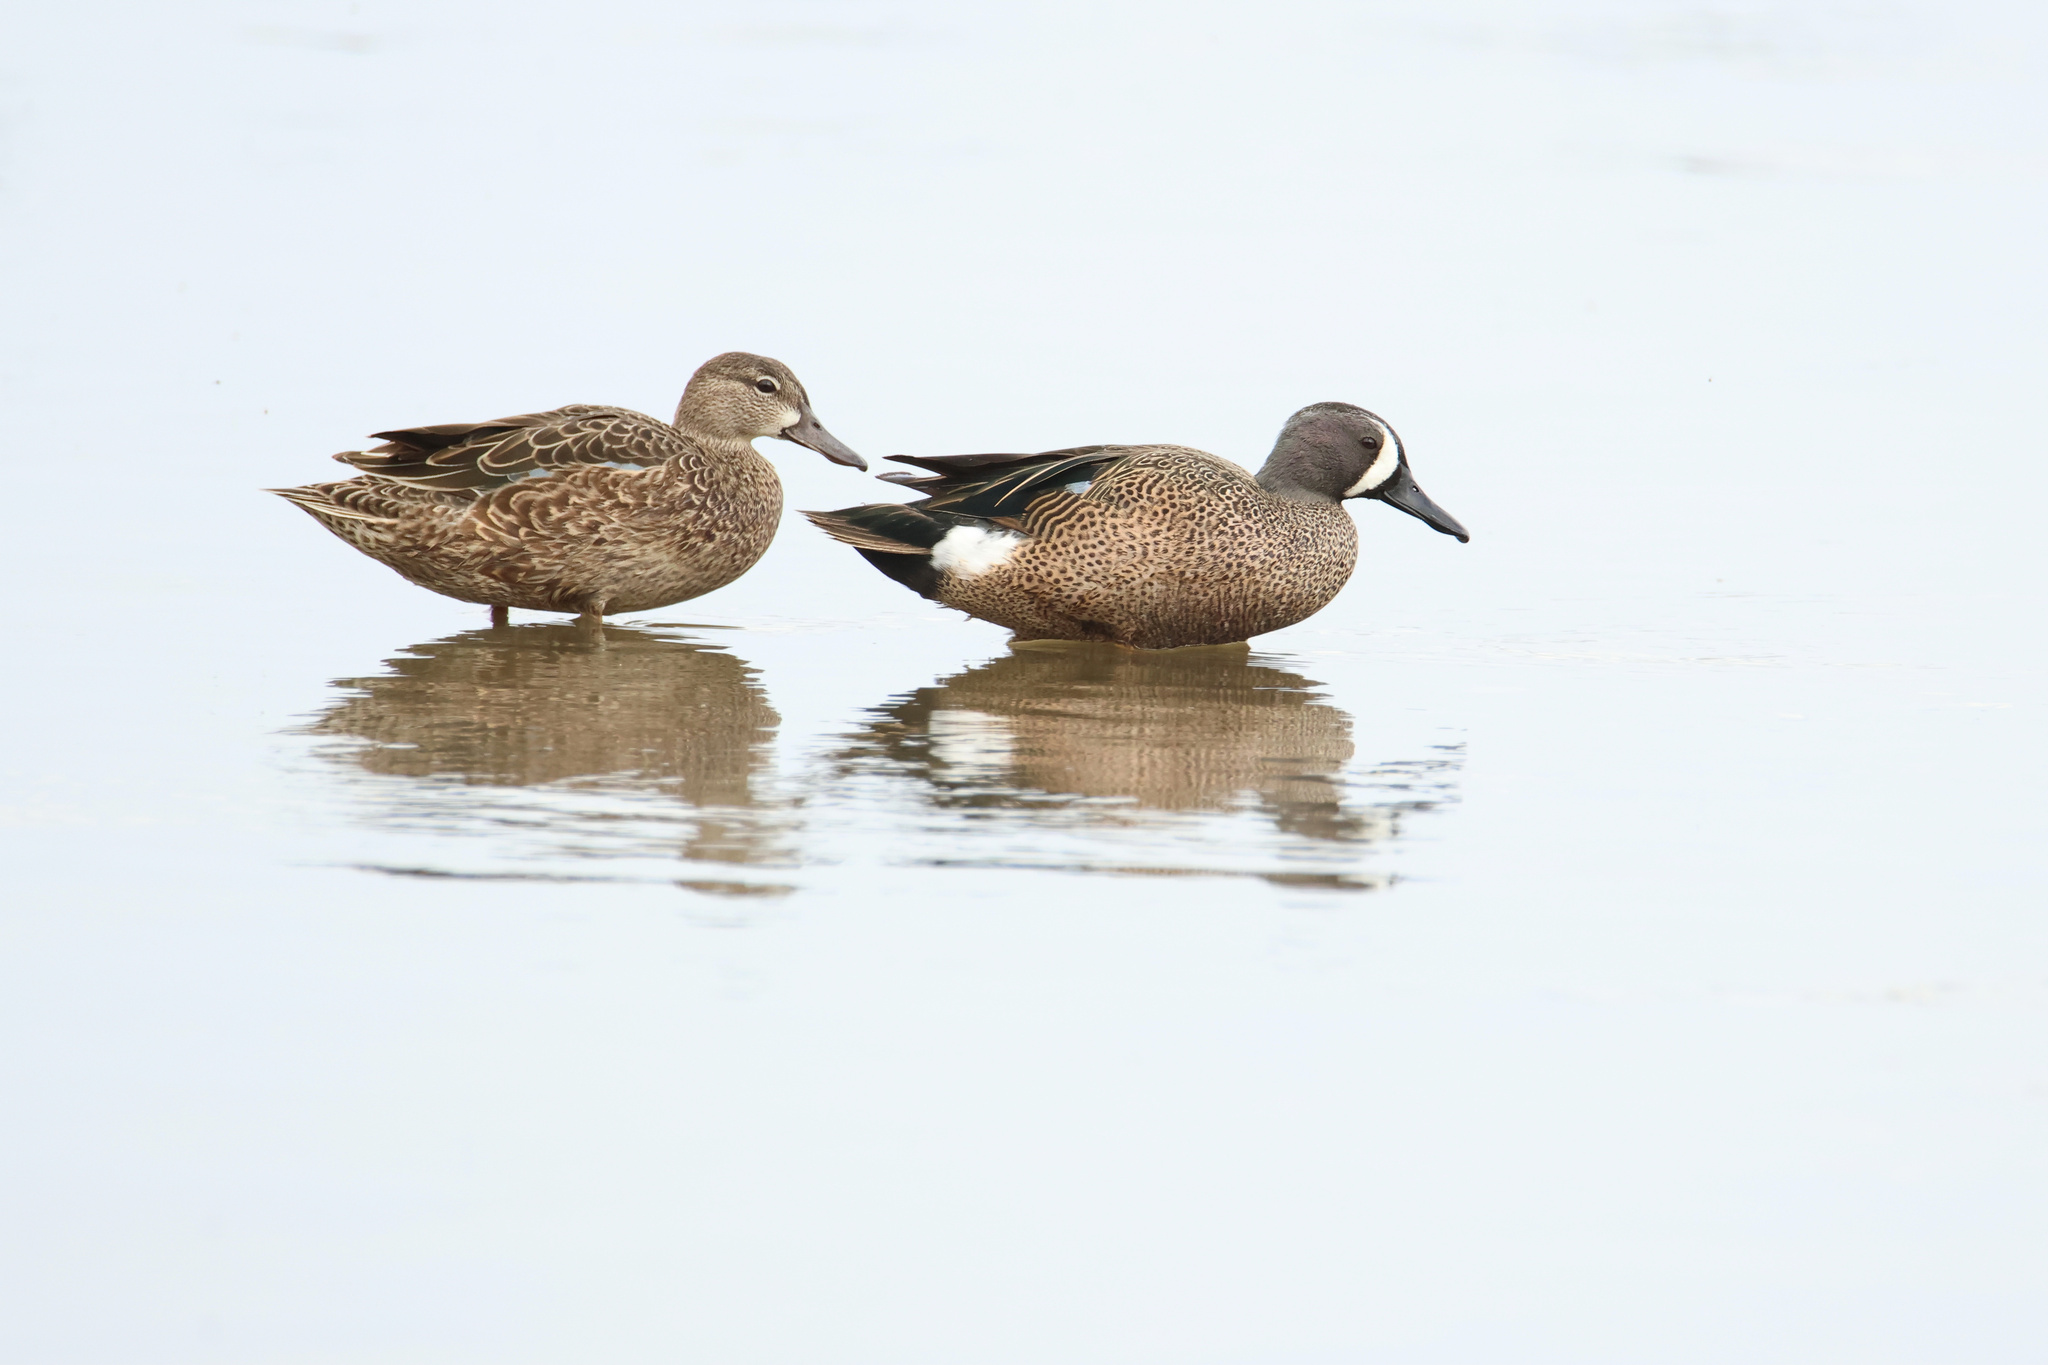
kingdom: Animalia
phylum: Chordata
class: Aves
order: Anseriformes
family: Anatidae
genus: Spatula
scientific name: Spatula discors
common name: Blue-winged teal
